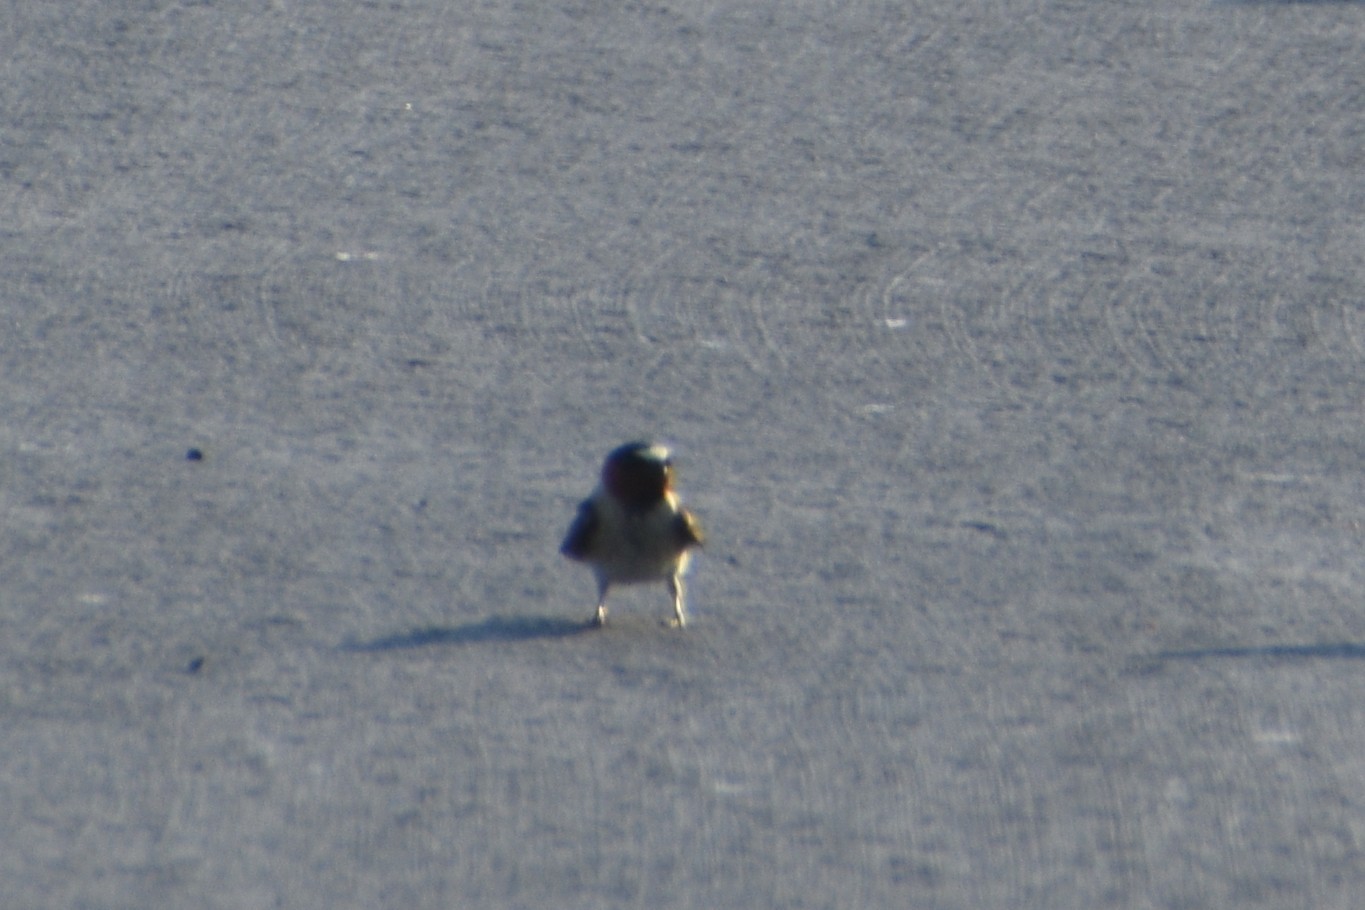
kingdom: Animalia
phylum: Chordata
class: Aves
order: Passeriformes
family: Hirundinidae
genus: Petrochelidon
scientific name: Petrochelidon pyrrhonota
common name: American cliff swallow
